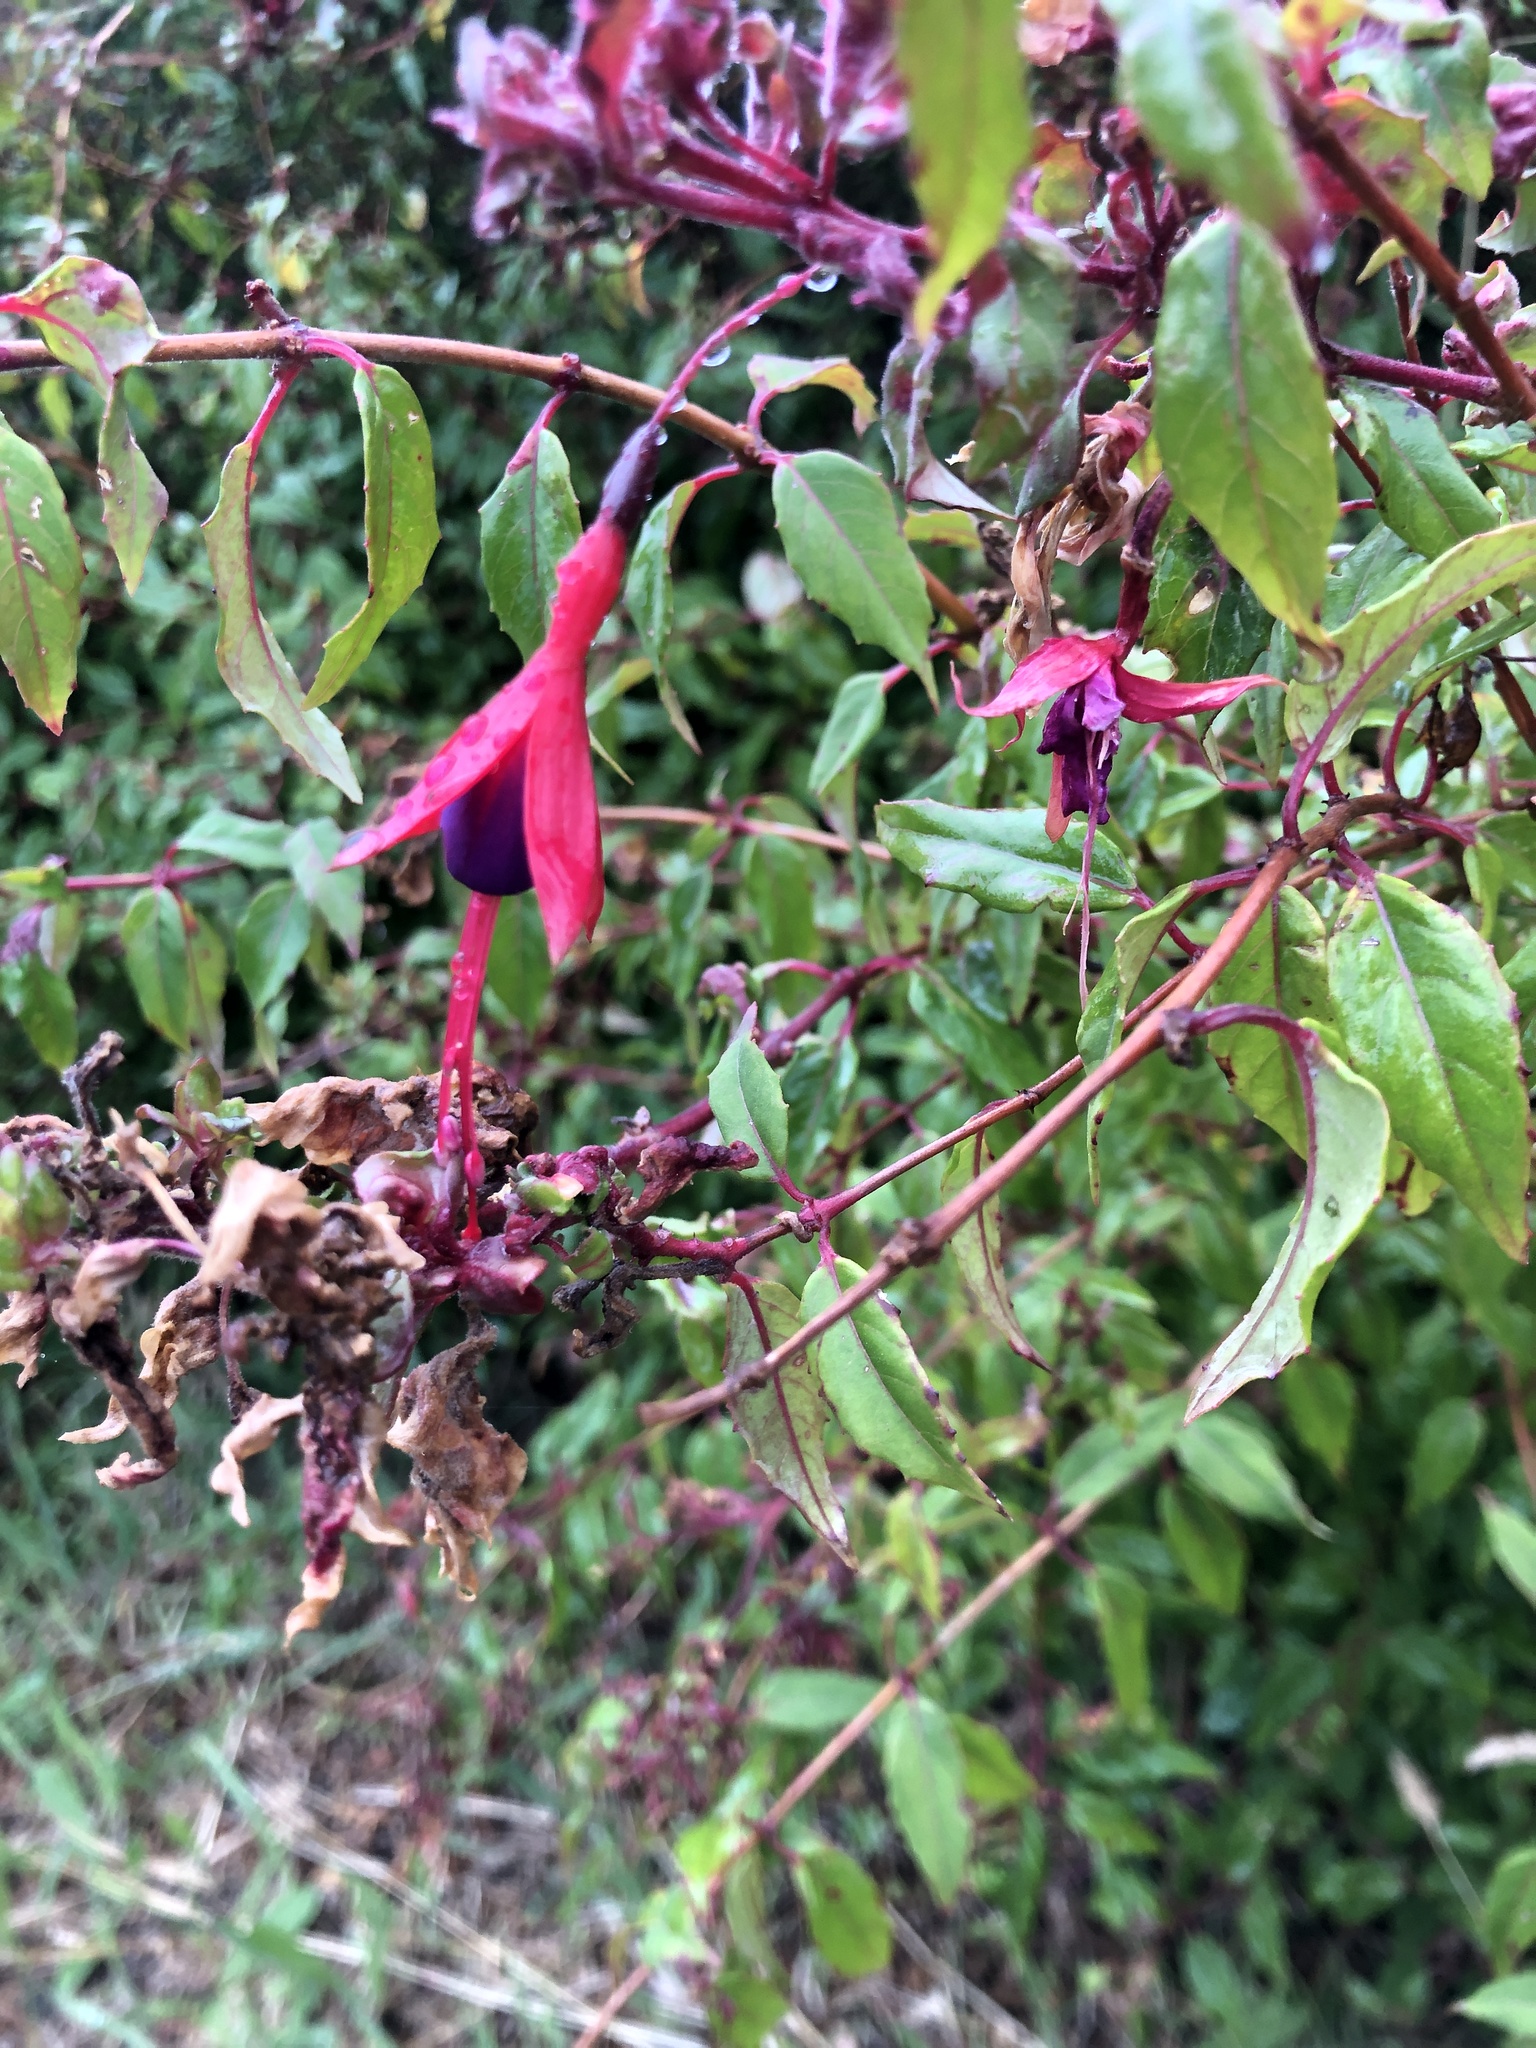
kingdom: Plantae
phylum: Tracheophyta
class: Magnoliopsida
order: Myrtales
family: Onagraceae
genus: Fuchsia
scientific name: Fuchsia magellanica
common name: Hardy fuchsia
